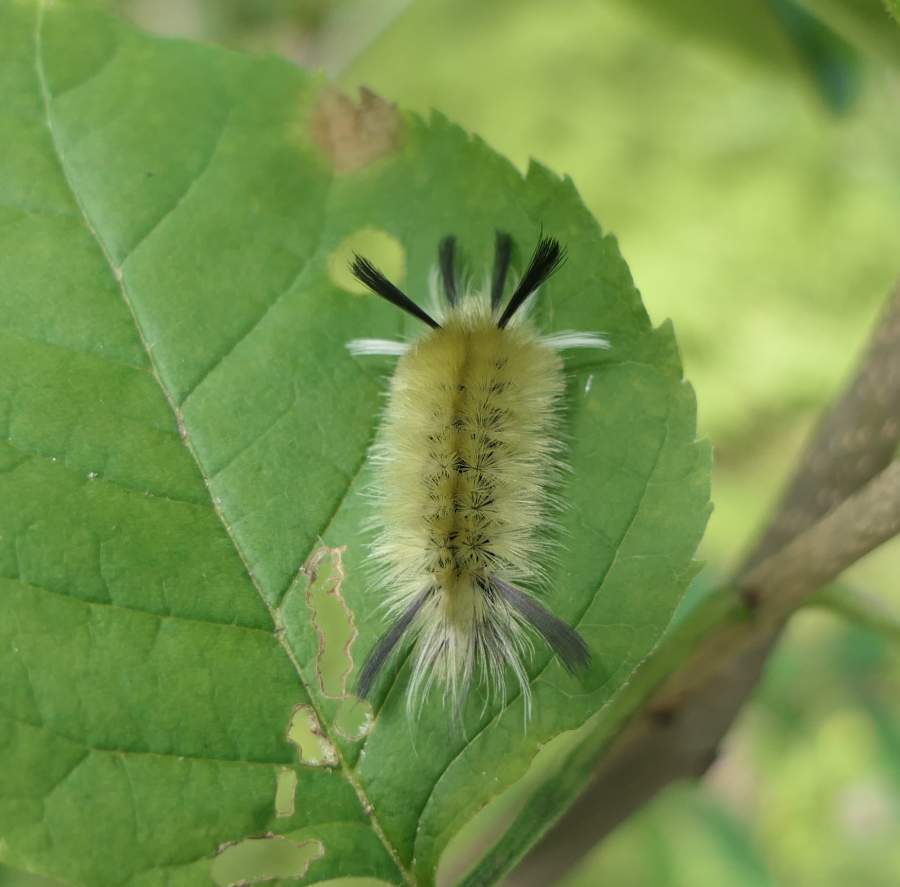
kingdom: Animalia
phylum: Arthropoda
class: Insecta
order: Lepidoptera
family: Erebidae
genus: Halysidota
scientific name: Halysidota tessellaris
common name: Banded tussock moth
